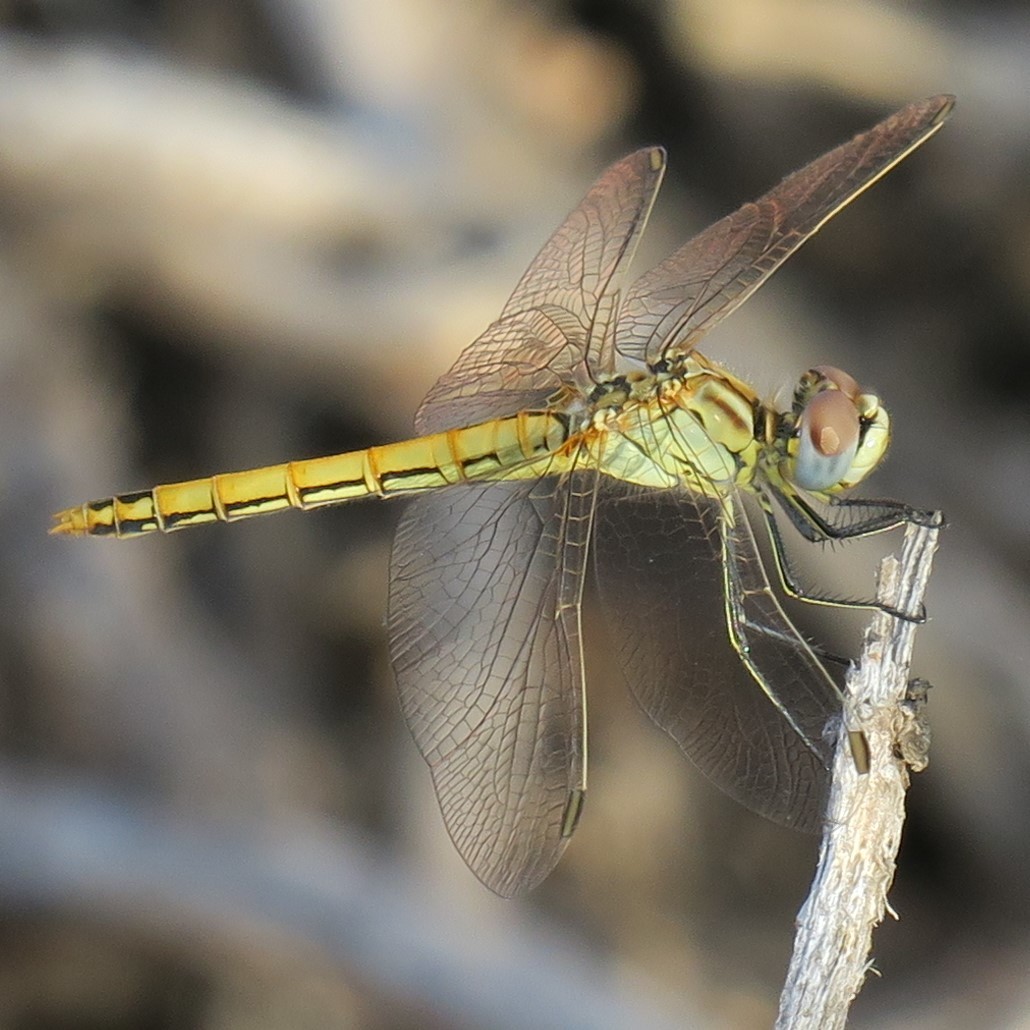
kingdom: Animalia
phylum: Arthropoda
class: Insecta
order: Odonata
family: Libellulidae
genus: Sympetrum
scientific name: Sympetrum fonscolombii
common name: Red-veined darter
